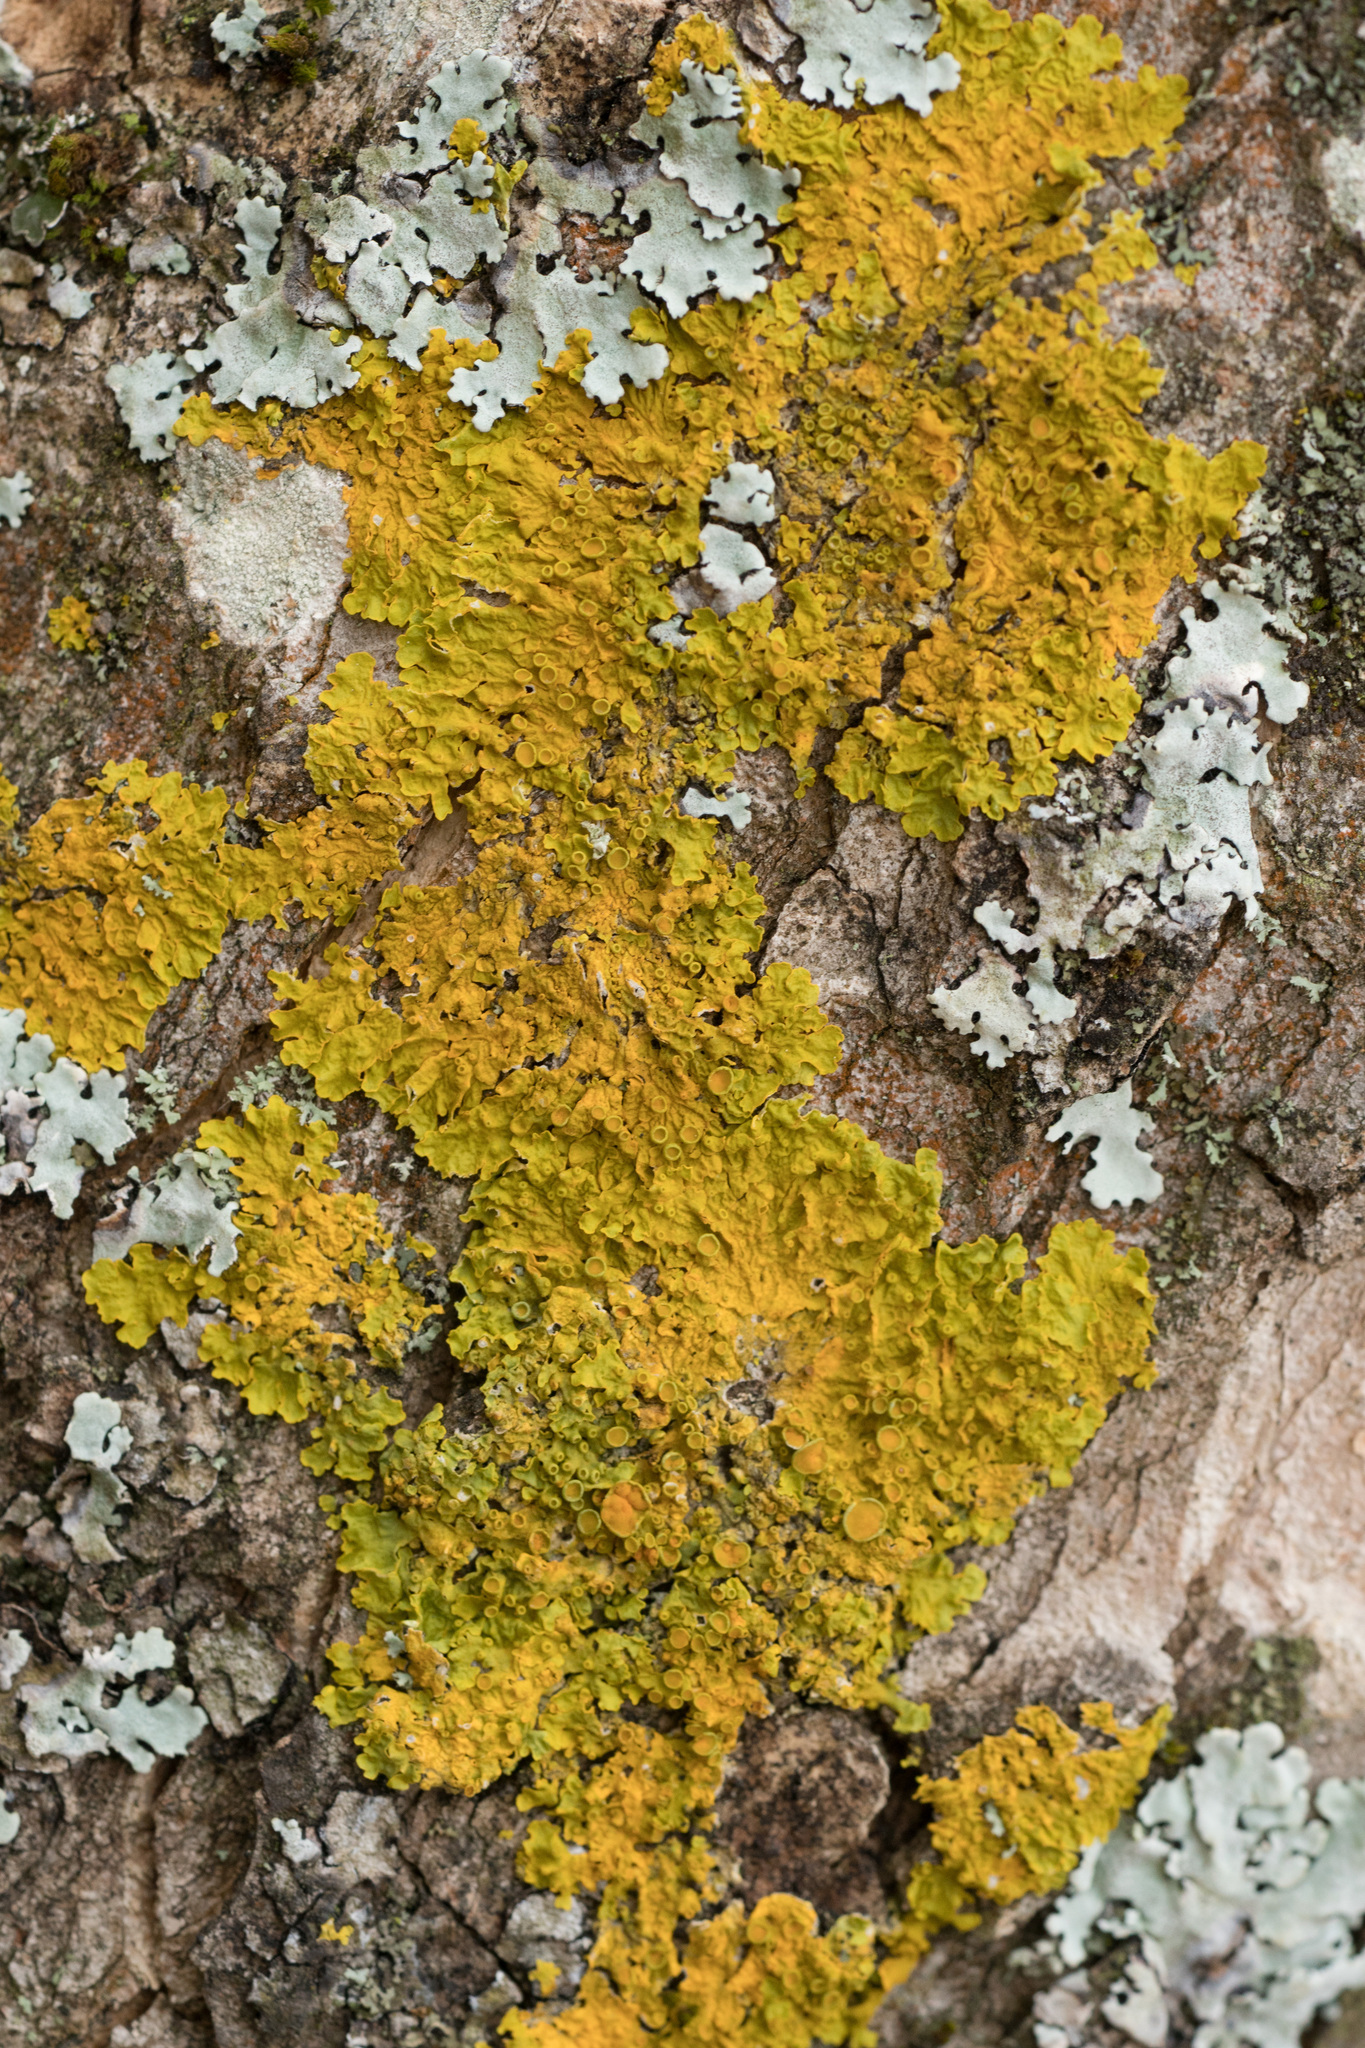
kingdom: Fungi
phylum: Ascomycota
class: Lecanoromycetes
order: Teloschistales
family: Teloschistaceae
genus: Xanthoria
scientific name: Xanthoria parietina
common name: Common orange lichen
